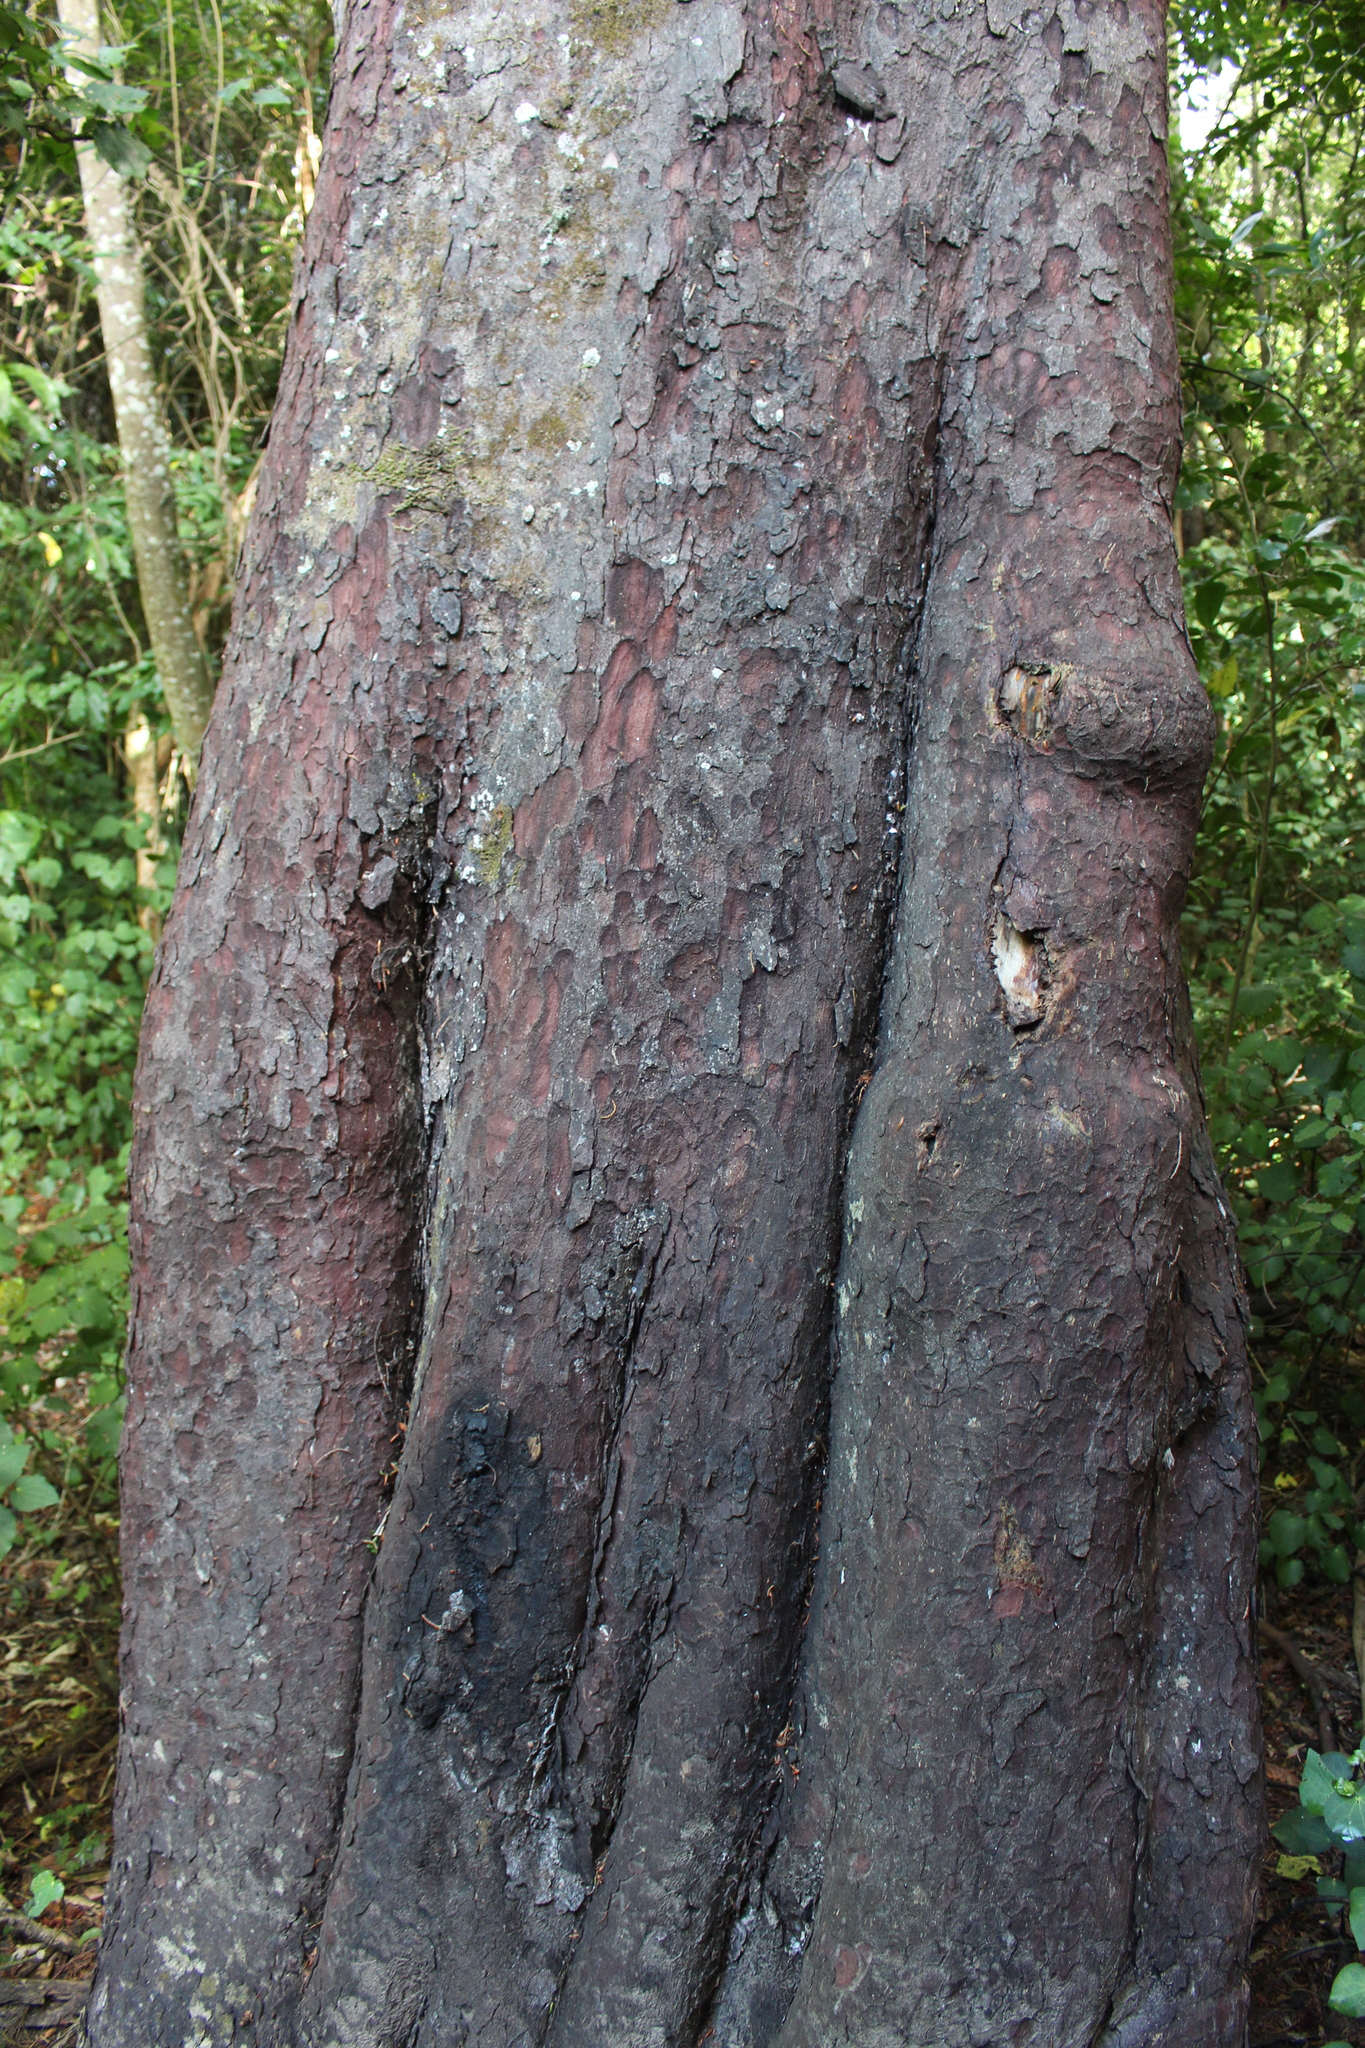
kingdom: Plantae
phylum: Tracheophyta
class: Pinopsida
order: Pinales
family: Podocarpaceae
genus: Prumnopitys
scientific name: Prumnopitys ferruginea
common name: Brown pine
